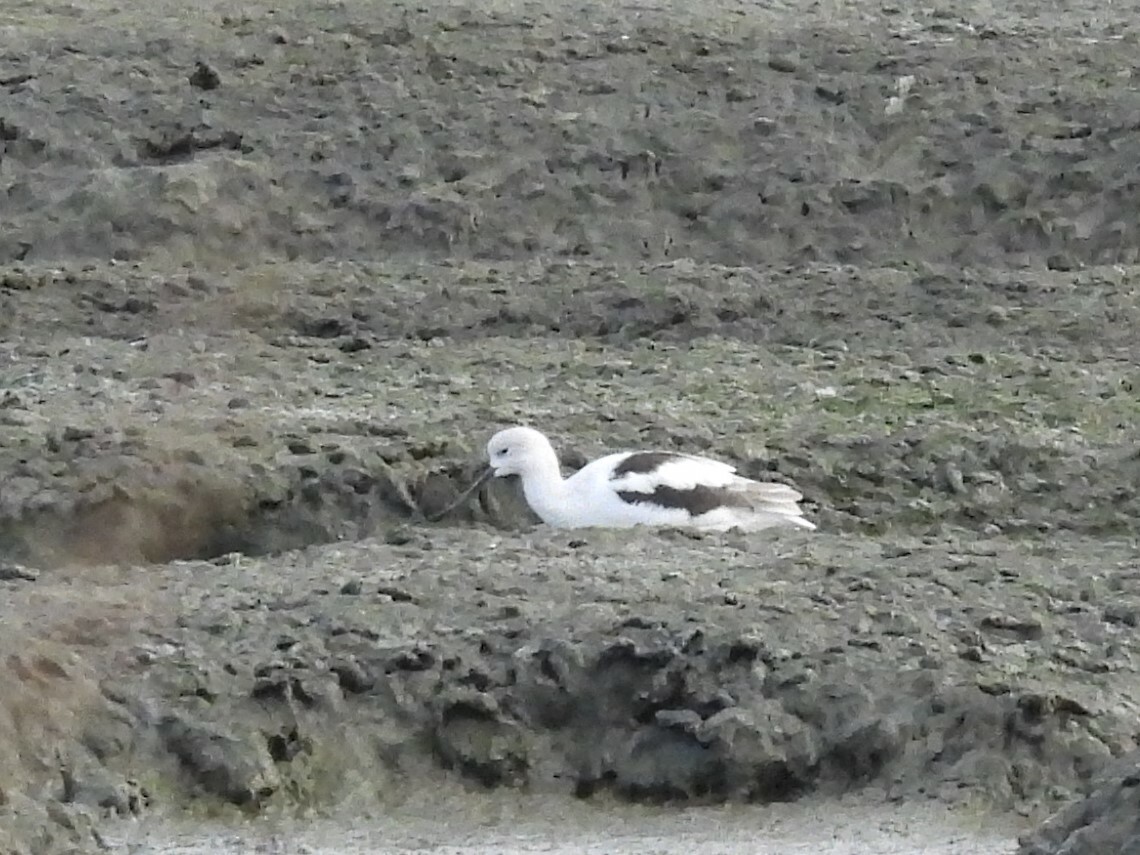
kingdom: Animalia
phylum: Chordata
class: Aves
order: Charadriiformes
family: Recurvirostridae
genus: Recurvirostra
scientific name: Recurvirostra americana
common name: American avocet
